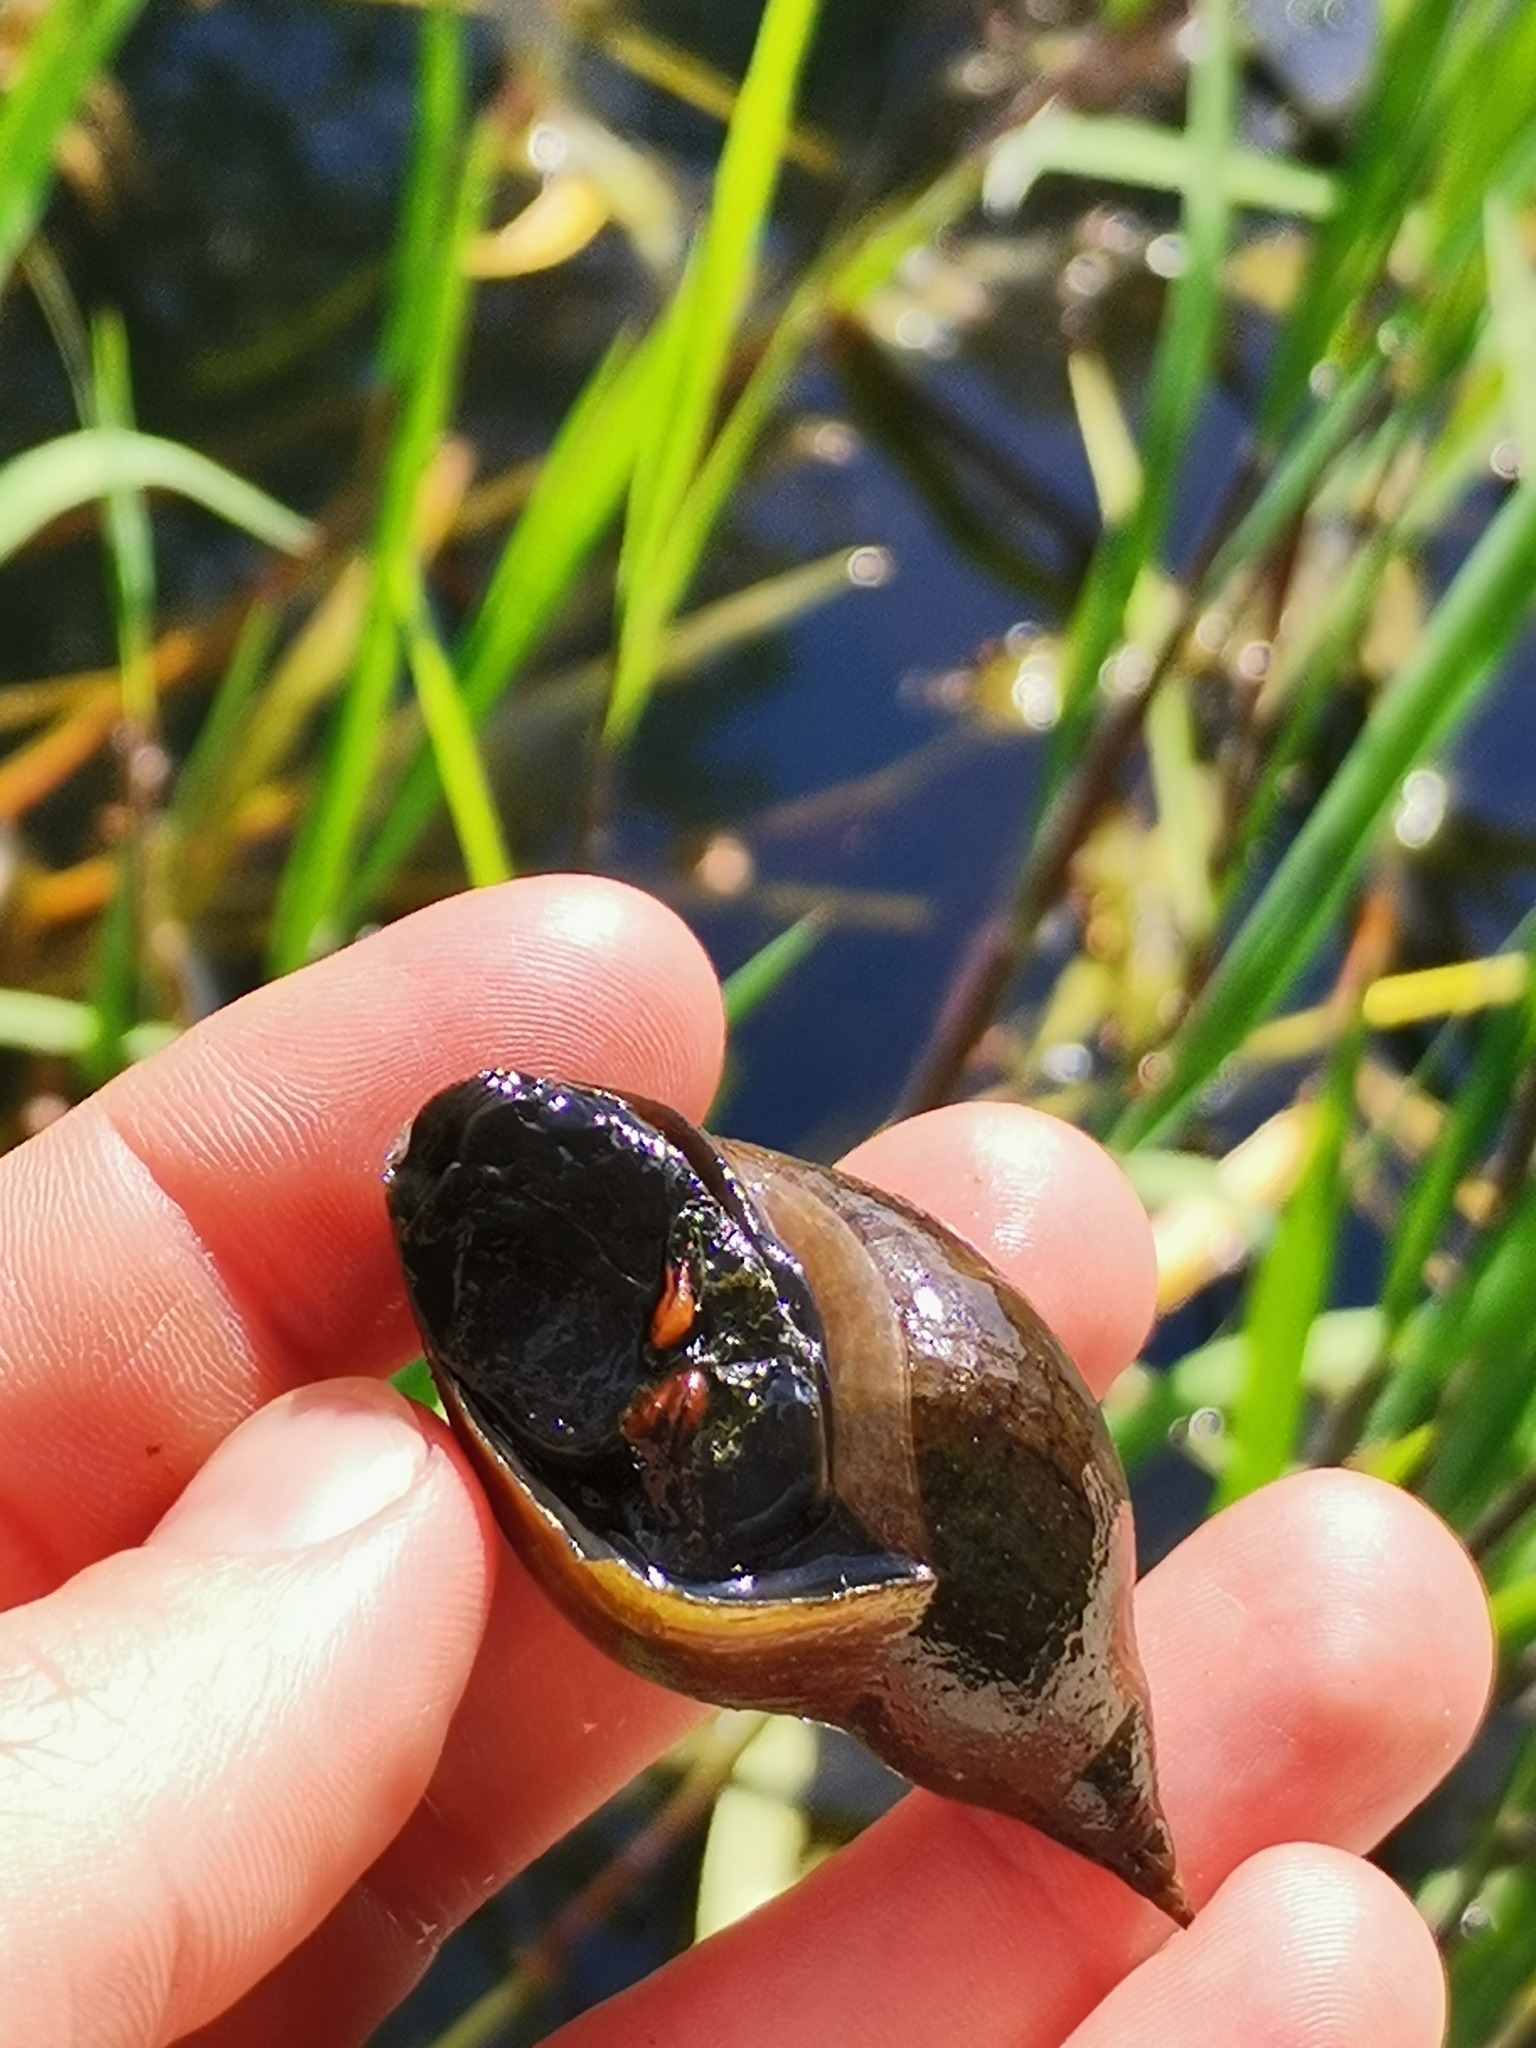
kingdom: Animalia
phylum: Mollusca
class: Gastropoda
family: Lymnaeidae
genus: Lymnaea
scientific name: Lymnaea stagnalis
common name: Great pond snail
